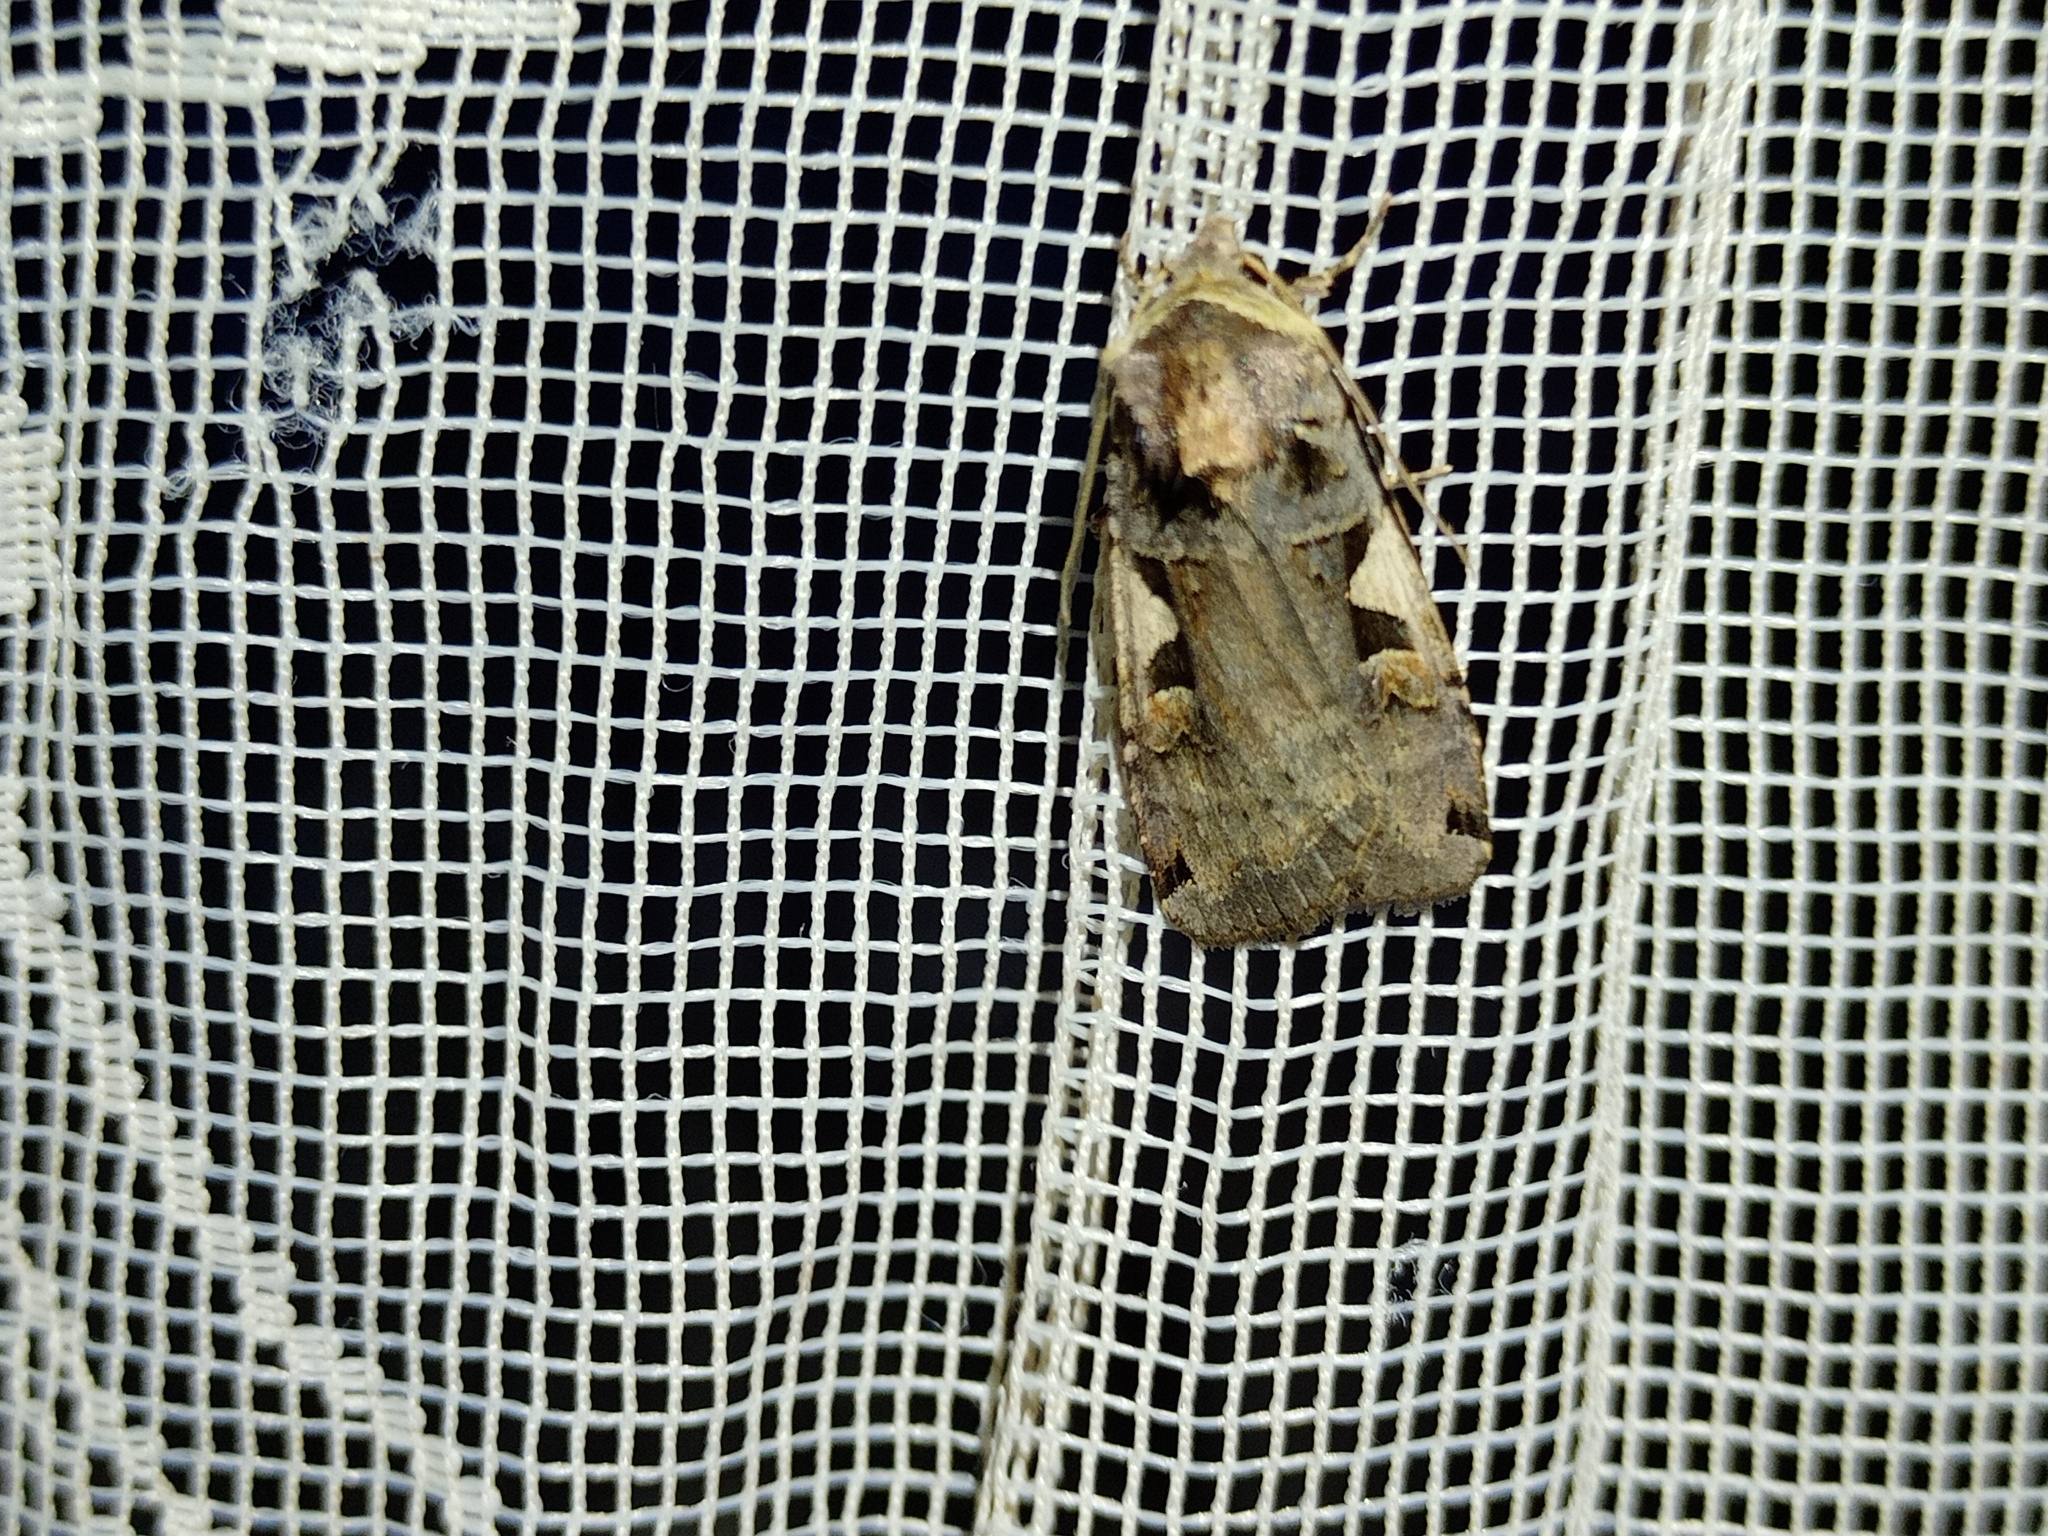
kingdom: Animalia
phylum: Arthropoda
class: Insecta
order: Lepidoptera
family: Noctuidae
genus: Xestia
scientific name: Xestia c-nigrum
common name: Setaceous hebrew character
